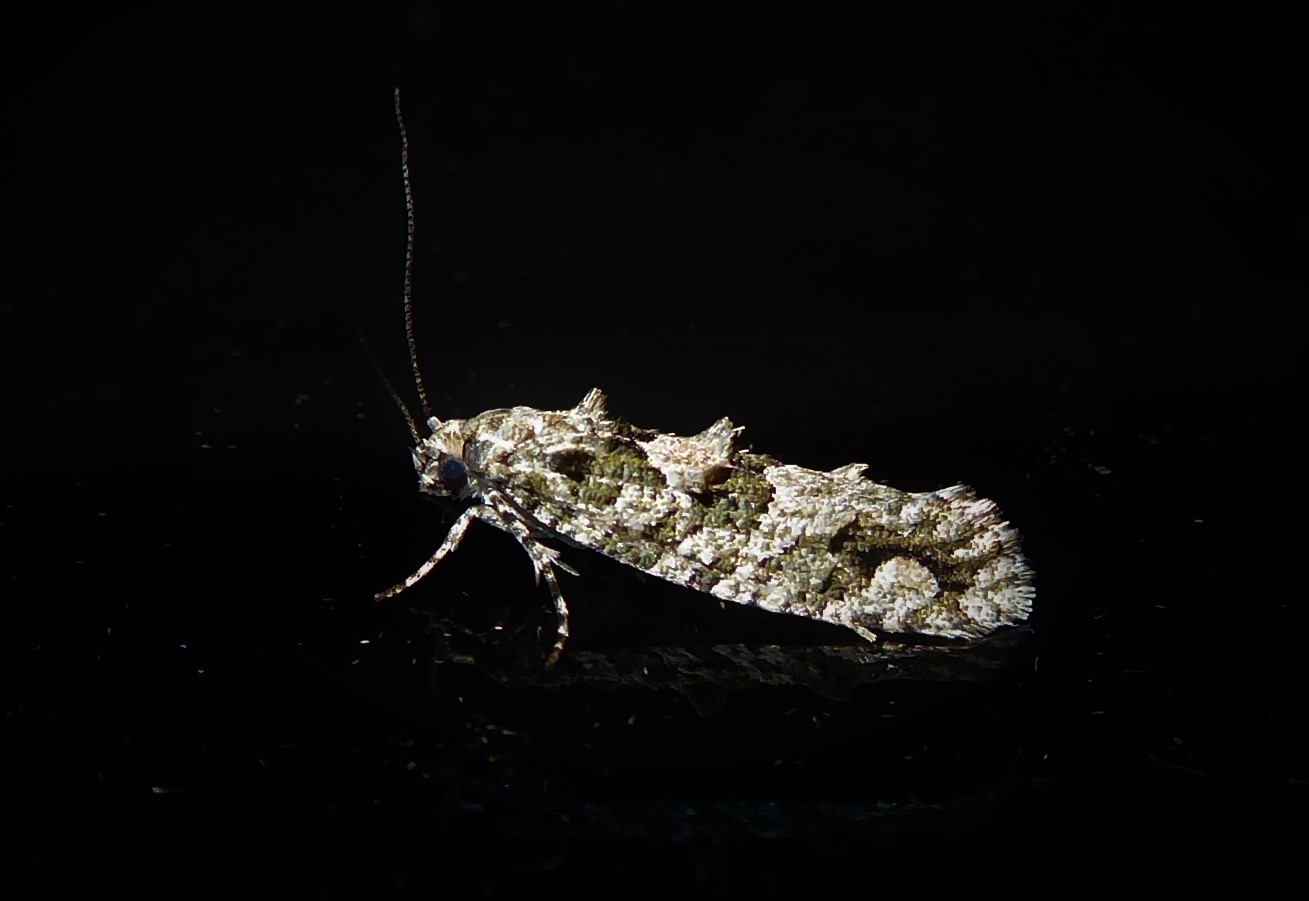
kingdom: Animalia
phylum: Arthropoda
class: Insecta
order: Lepidoptera
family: Tineidae
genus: Lysiphragma
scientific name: Lysiphragma howesii
